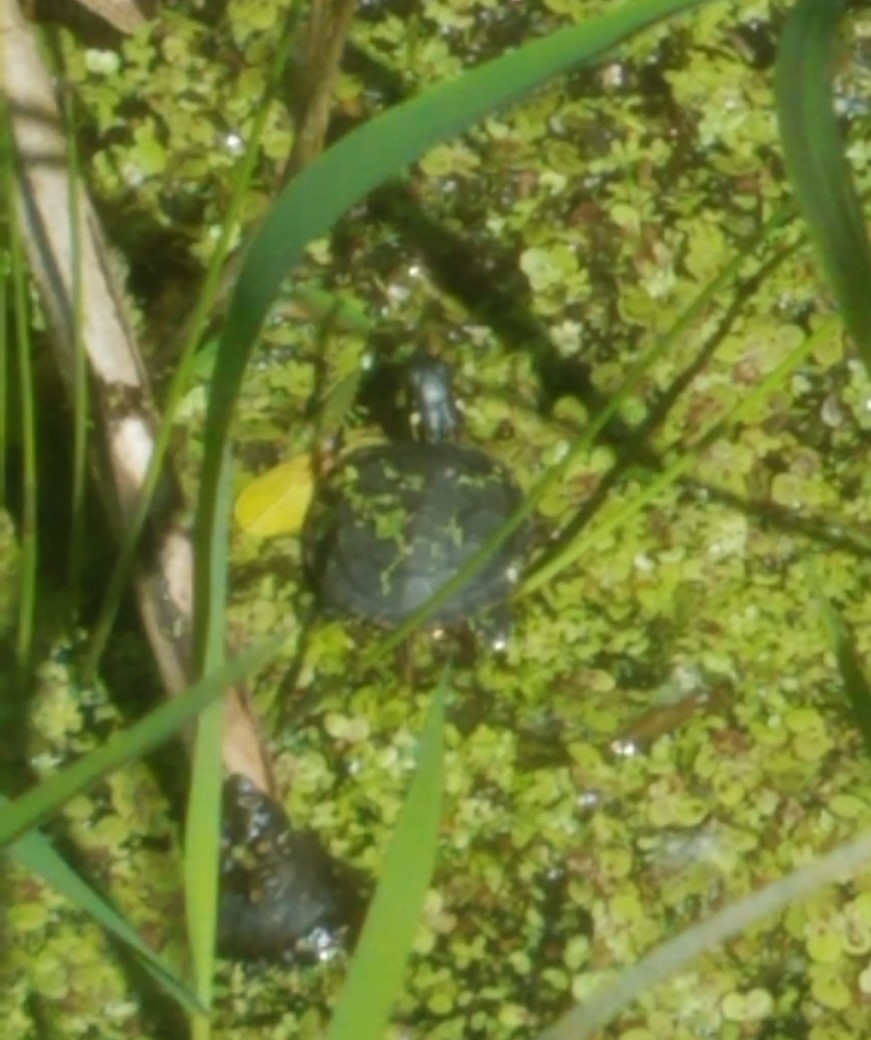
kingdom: Animalia
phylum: Chordata
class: Testudines
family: Emydidae
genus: Chrysemys
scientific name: Chrysemys picta
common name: Painted turtle
